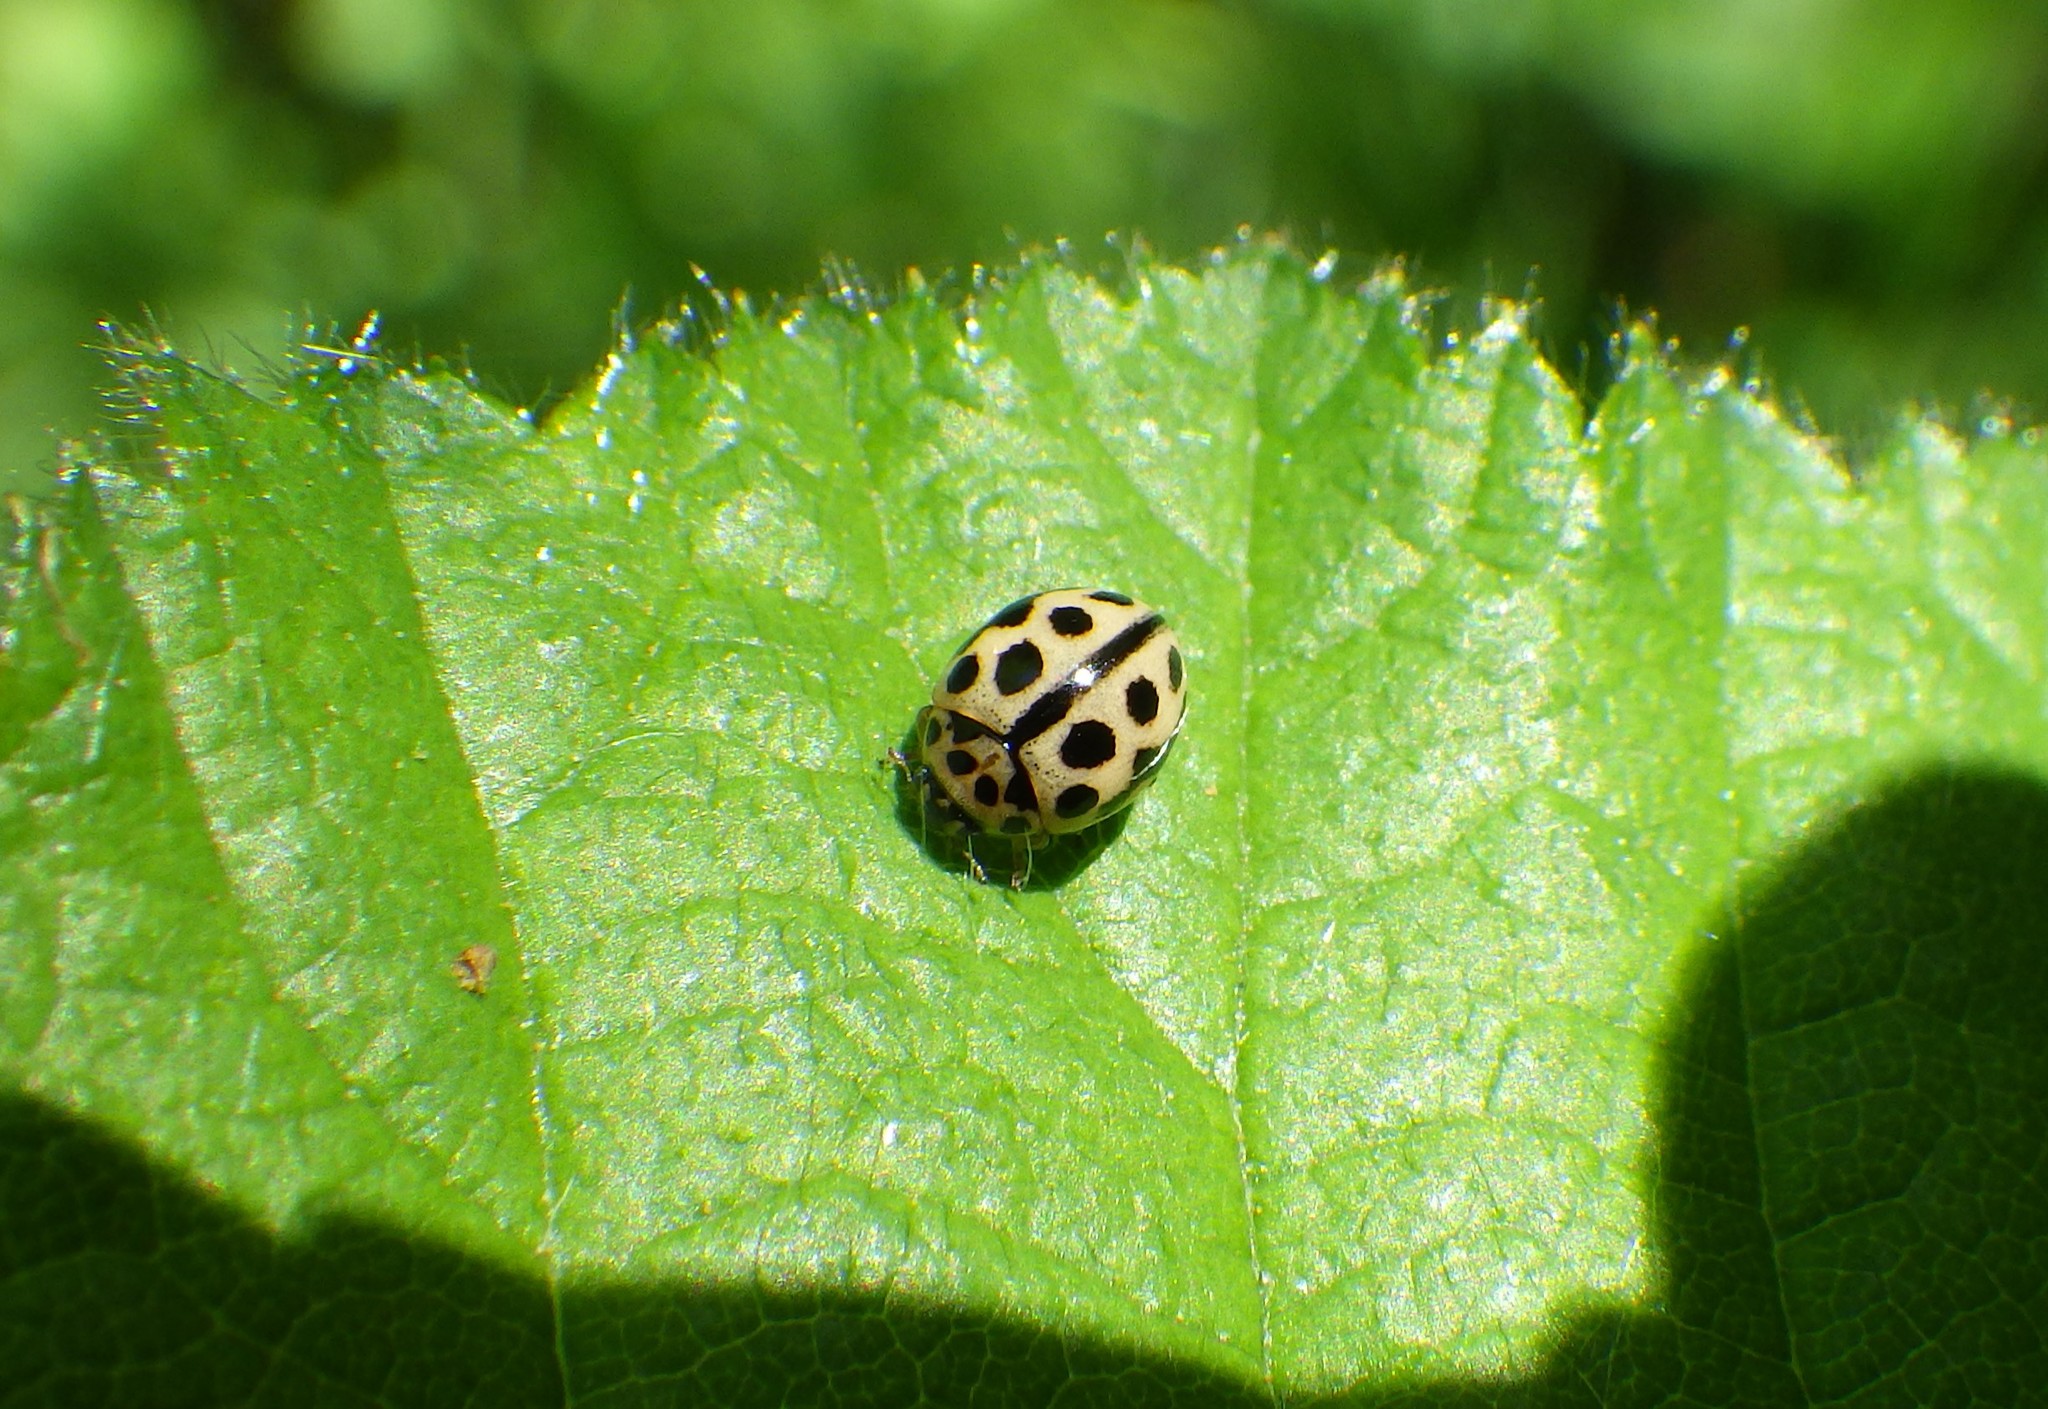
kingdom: Animalia
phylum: Arthropoda
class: Insecta
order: Coleoptera
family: Coccinellidae
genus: Tytthaspis
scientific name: Tytthaspis sedecimpunctata
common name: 16-spot ladybird
